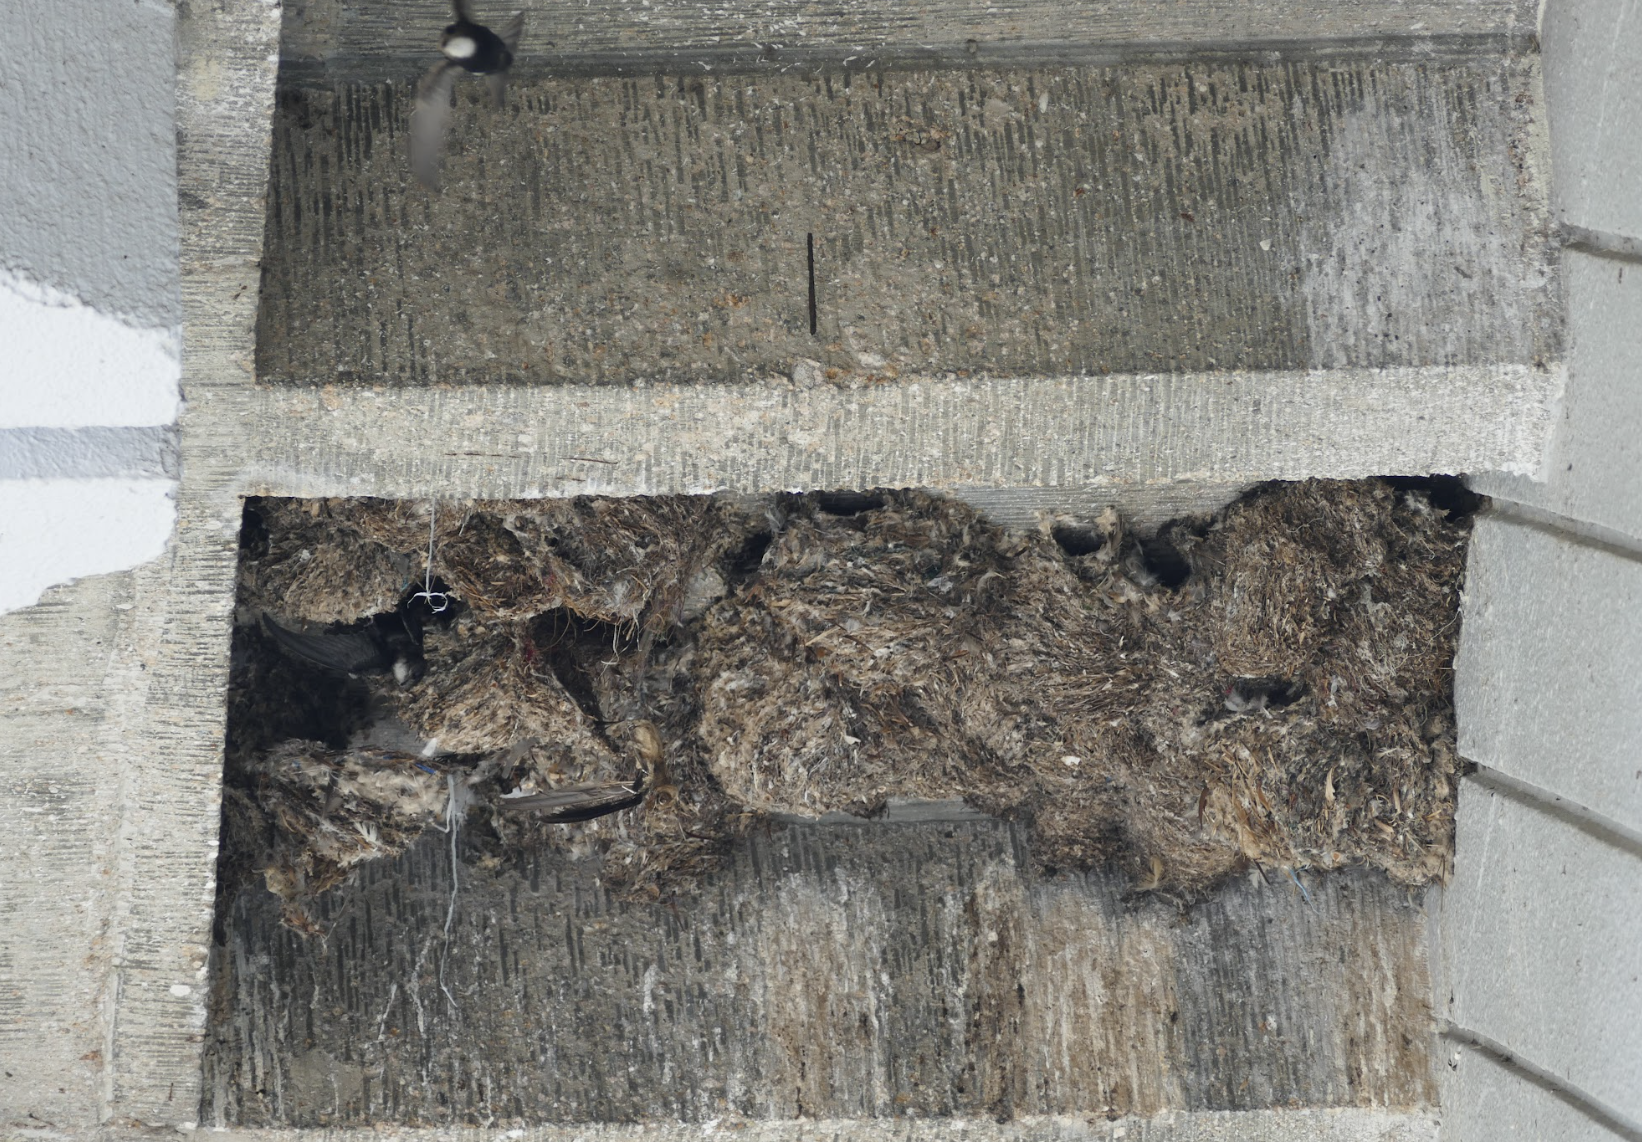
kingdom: Animalia
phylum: Chordata
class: Aves
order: Apodiformes
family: Apodidae
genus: Apus
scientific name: Apus nipalensis
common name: House swift
